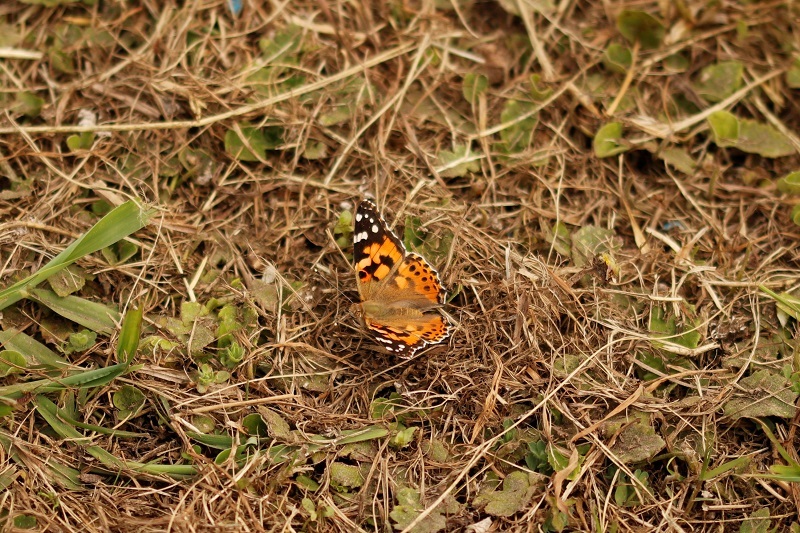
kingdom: Animalia
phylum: Arthropoda
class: Insecta
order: Lepidoptera
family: Nymphalidae
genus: Vanessa
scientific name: Vanessa cardui
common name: Painted lady
